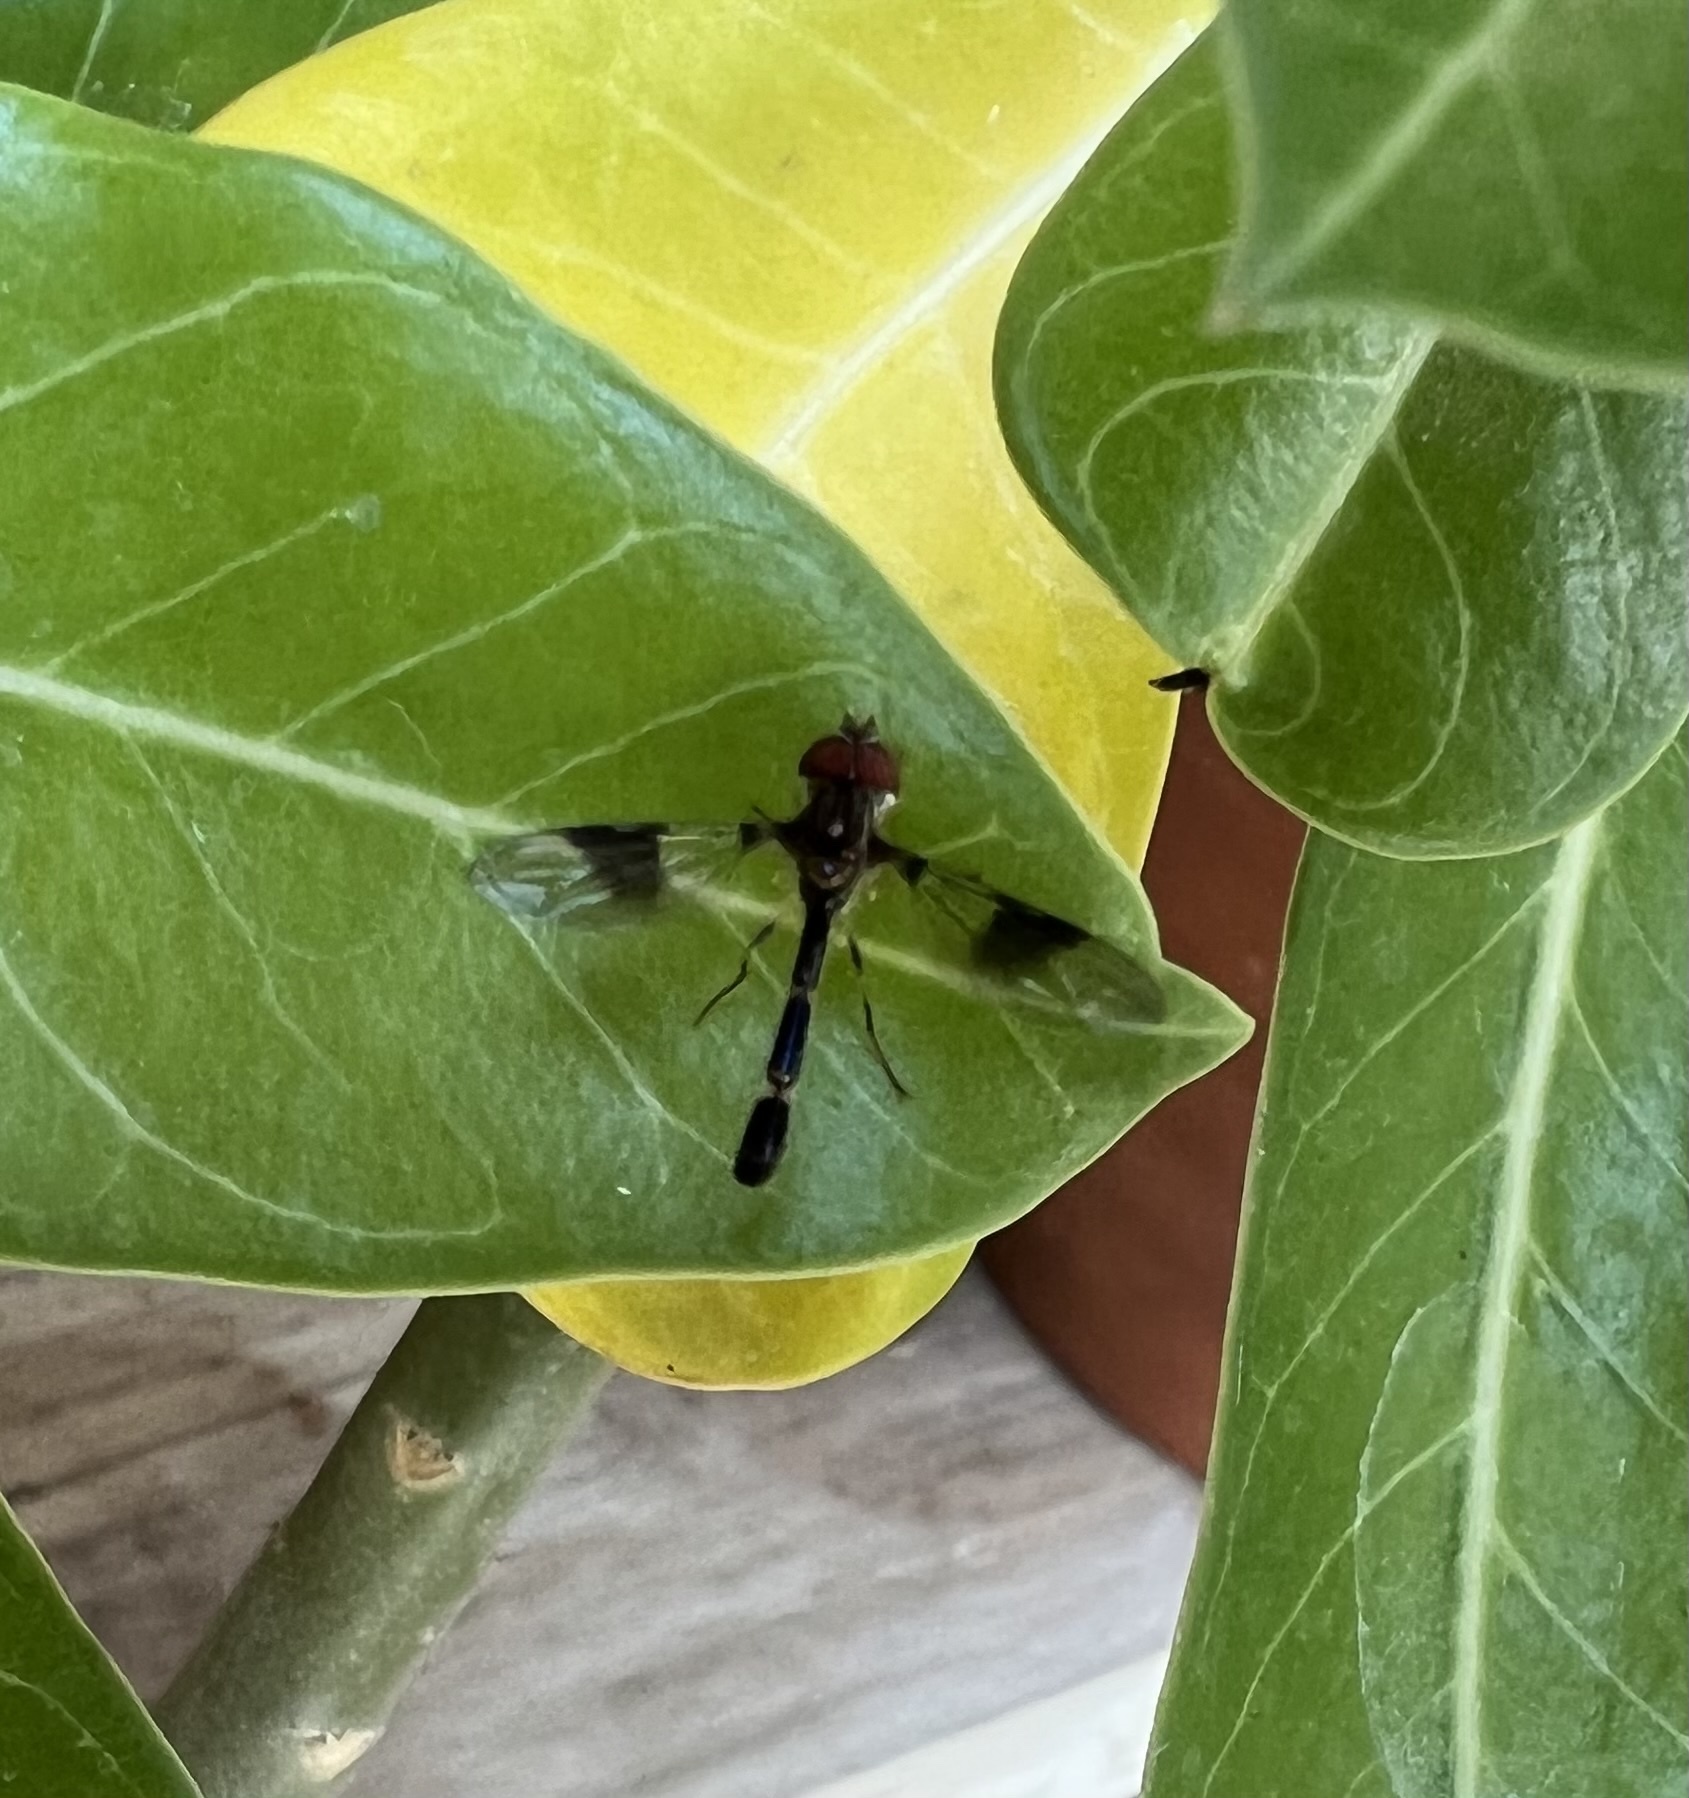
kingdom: Animalia
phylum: Arthropoda
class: Insecta
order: Diptera
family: Syrphidae
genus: Hypocritanus
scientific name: Hypocritanus fascipennis
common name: Eastern band-winged hover fly
